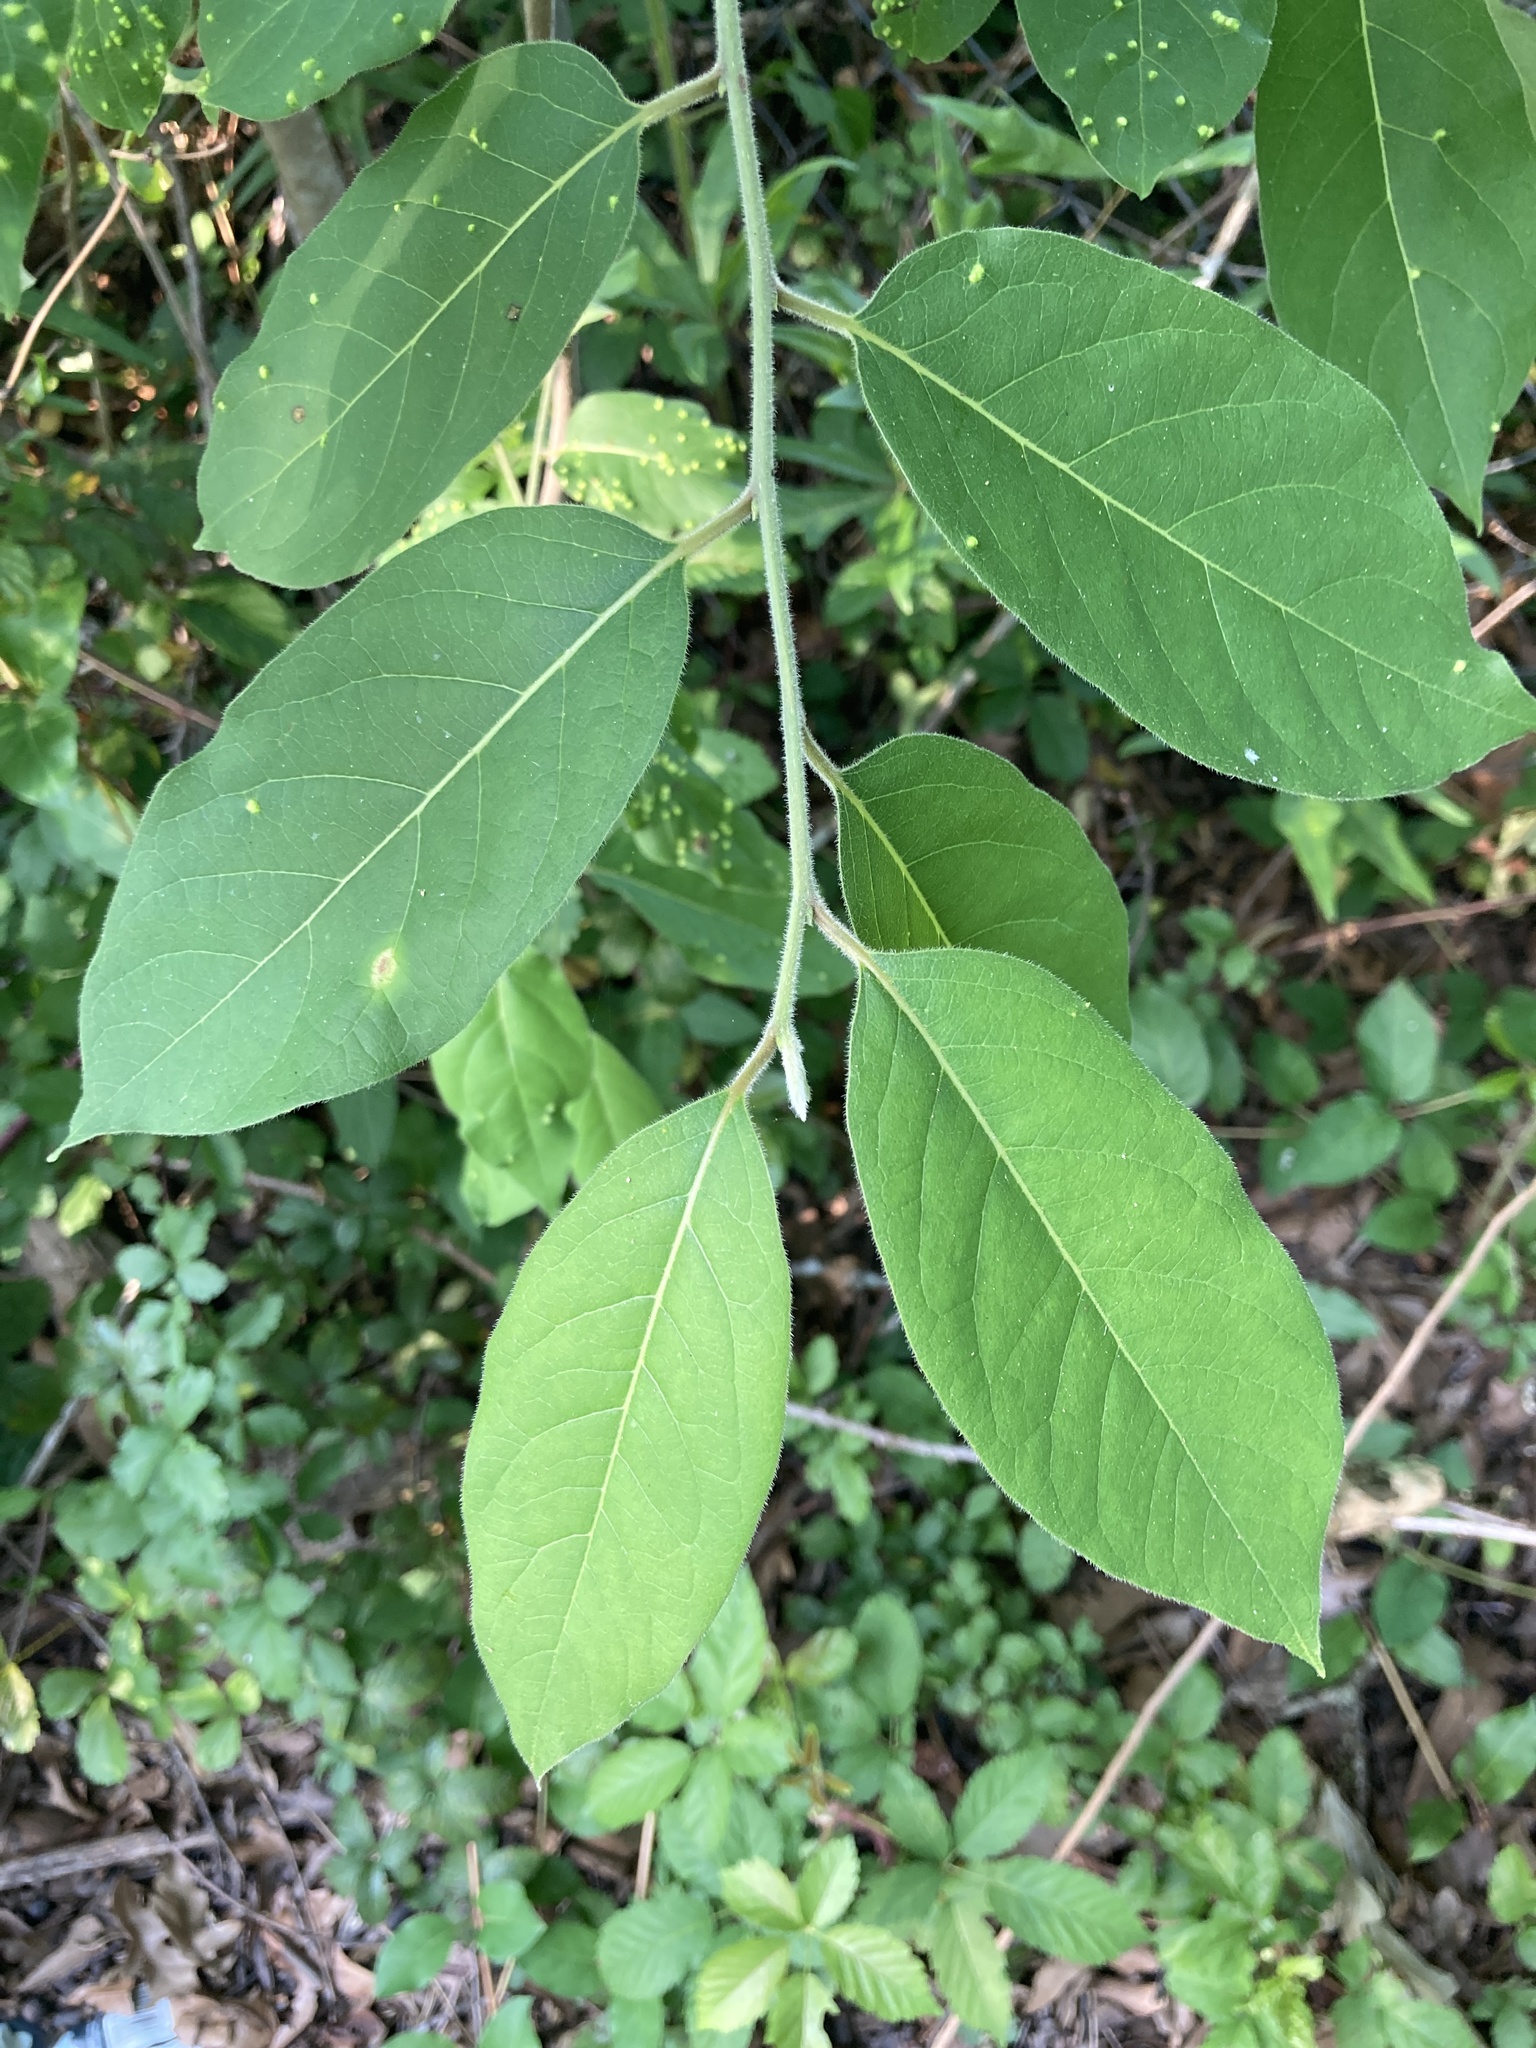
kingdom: Plantae
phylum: Tracheophyta
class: Magnoliopsida
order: Ericales
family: Ebenaceae
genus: Diospyros
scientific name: Diospyros virginiana
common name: Persimmon
